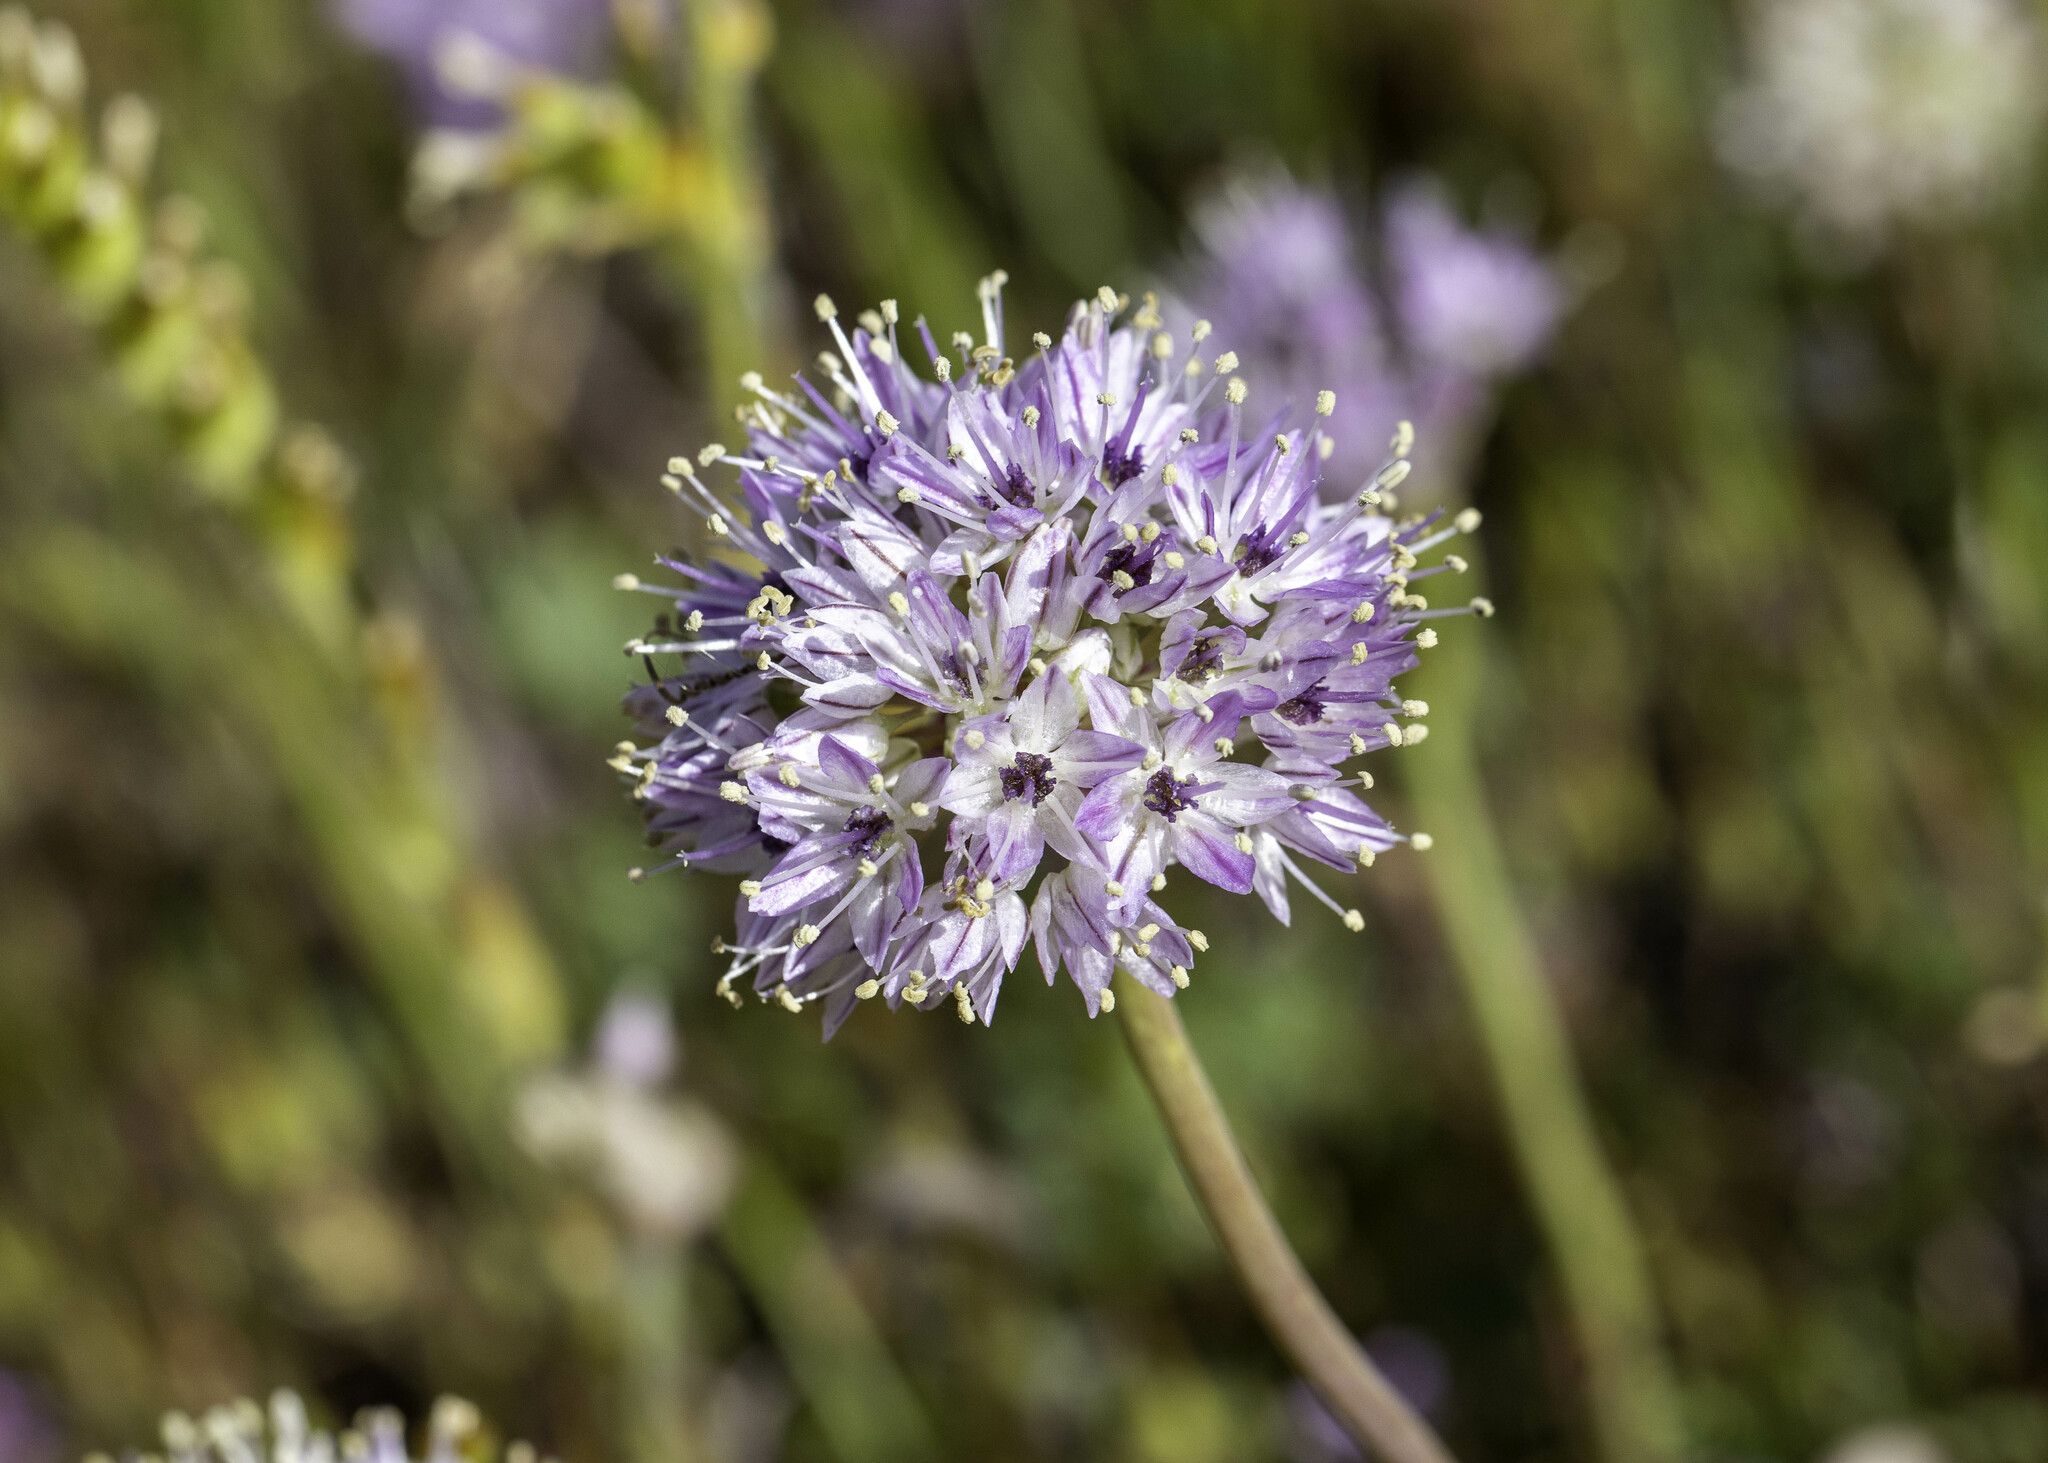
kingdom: Plantae
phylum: Tracheophyta
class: Liliopsida
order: Asparagales
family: Amaryllidaceae
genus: Allium
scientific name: Allium howellii
